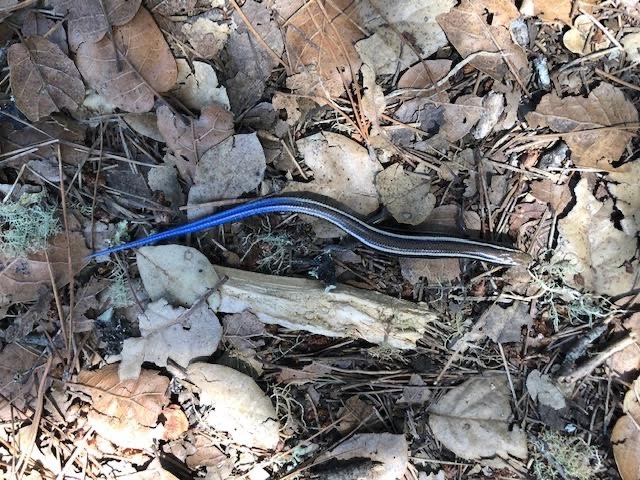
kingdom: Animalia
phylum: Chordata
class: Squamata
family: Scincidae
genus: Plestiodon
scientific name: Plestiodon skiltonianus
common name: Coronado island skink [interparietalis]
